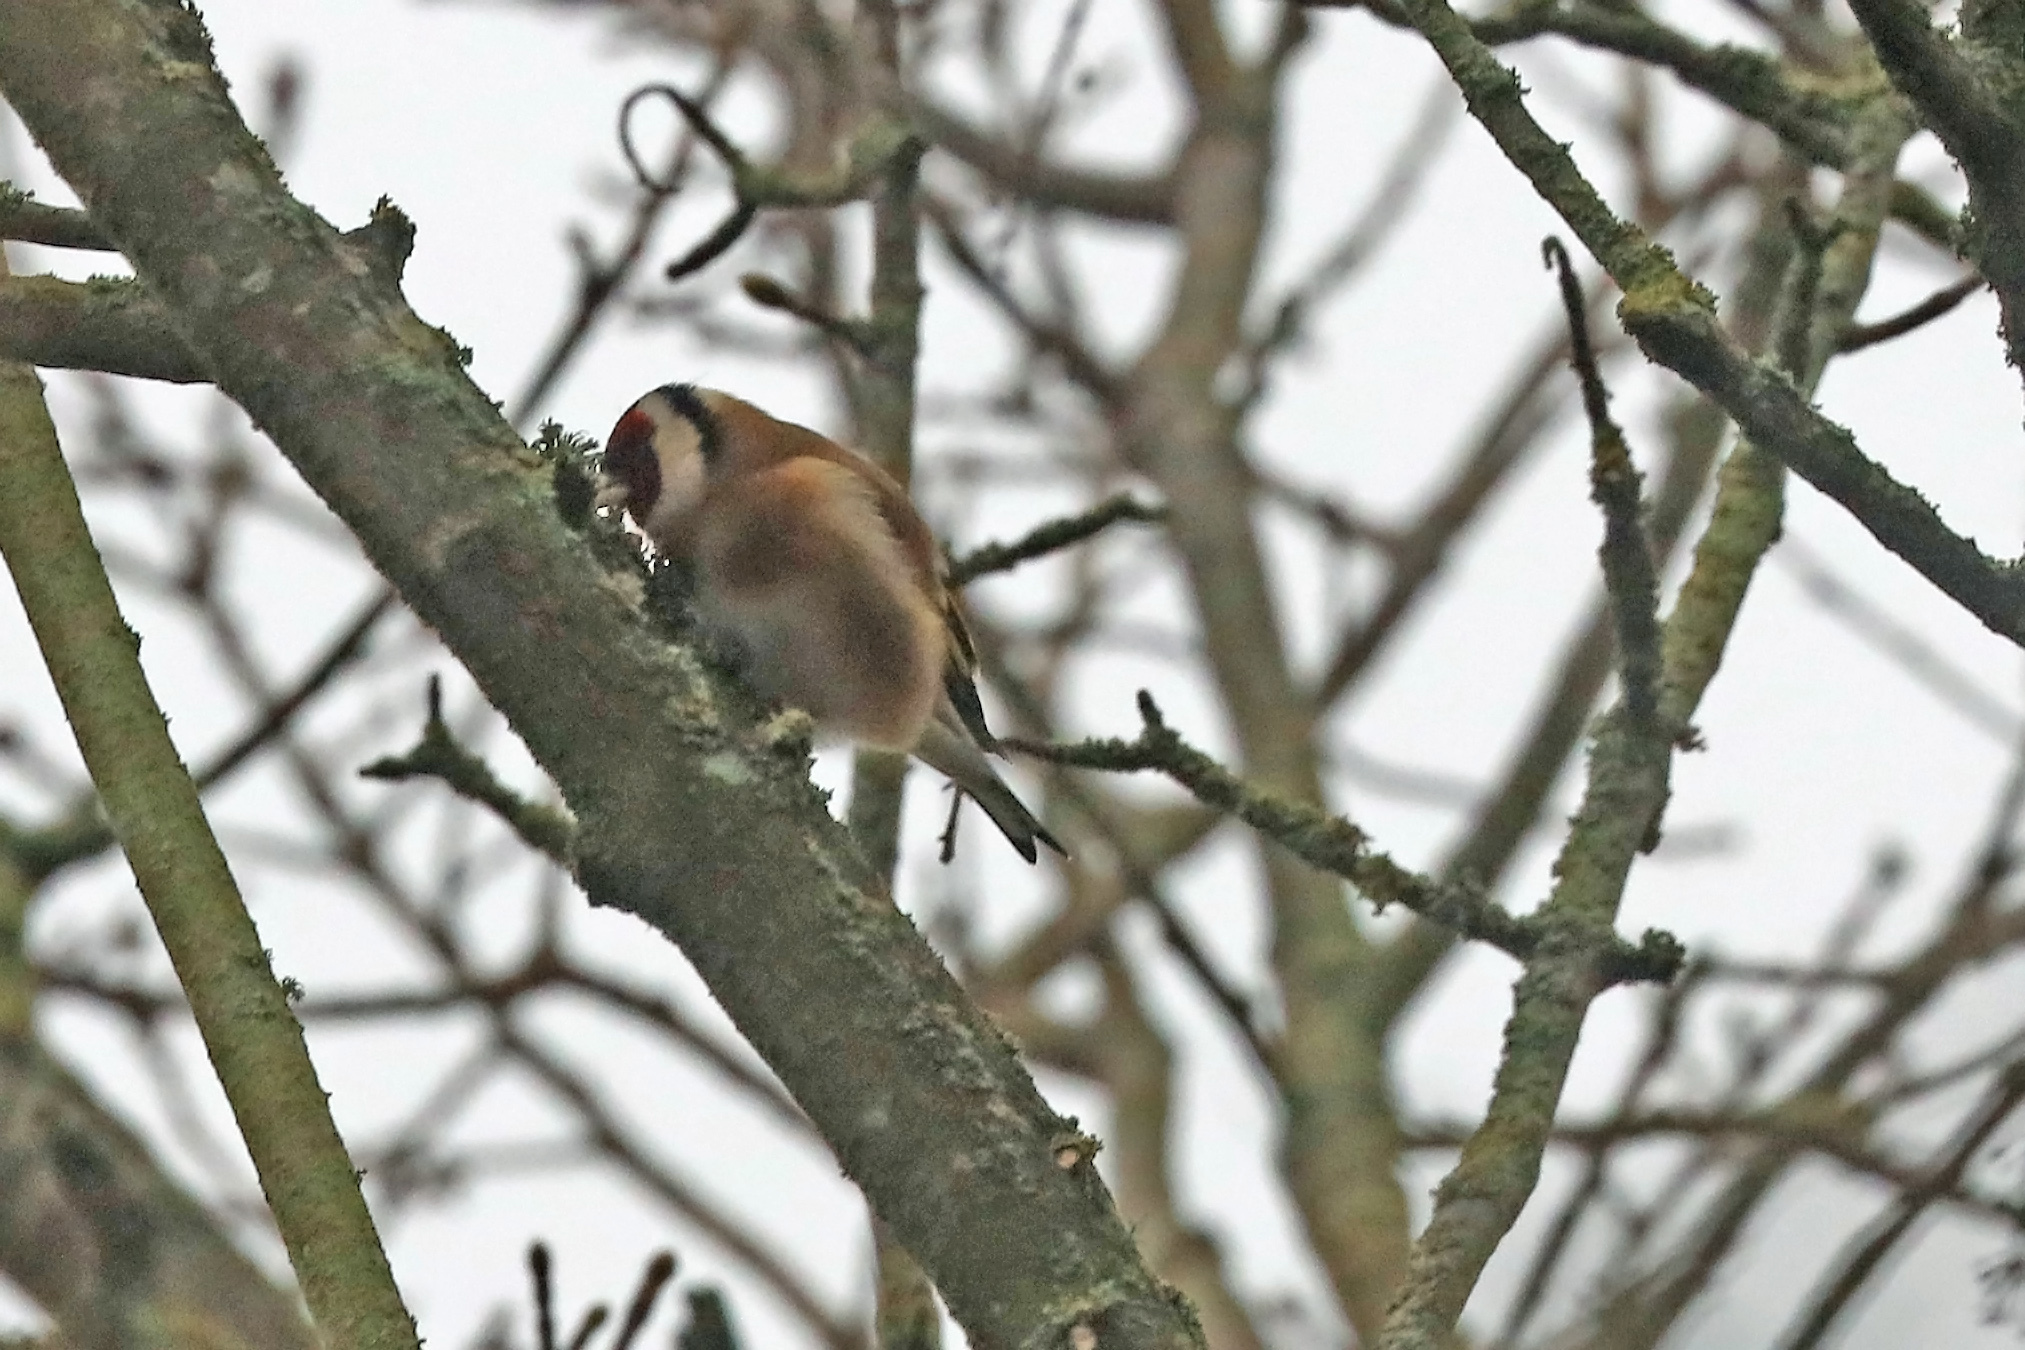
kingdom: Animalia
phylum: Chordata
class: Aves
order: Passeriformes
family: Fringillidae
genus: Carduelis
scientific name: Carduelis carduelis
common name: European goldfinch
